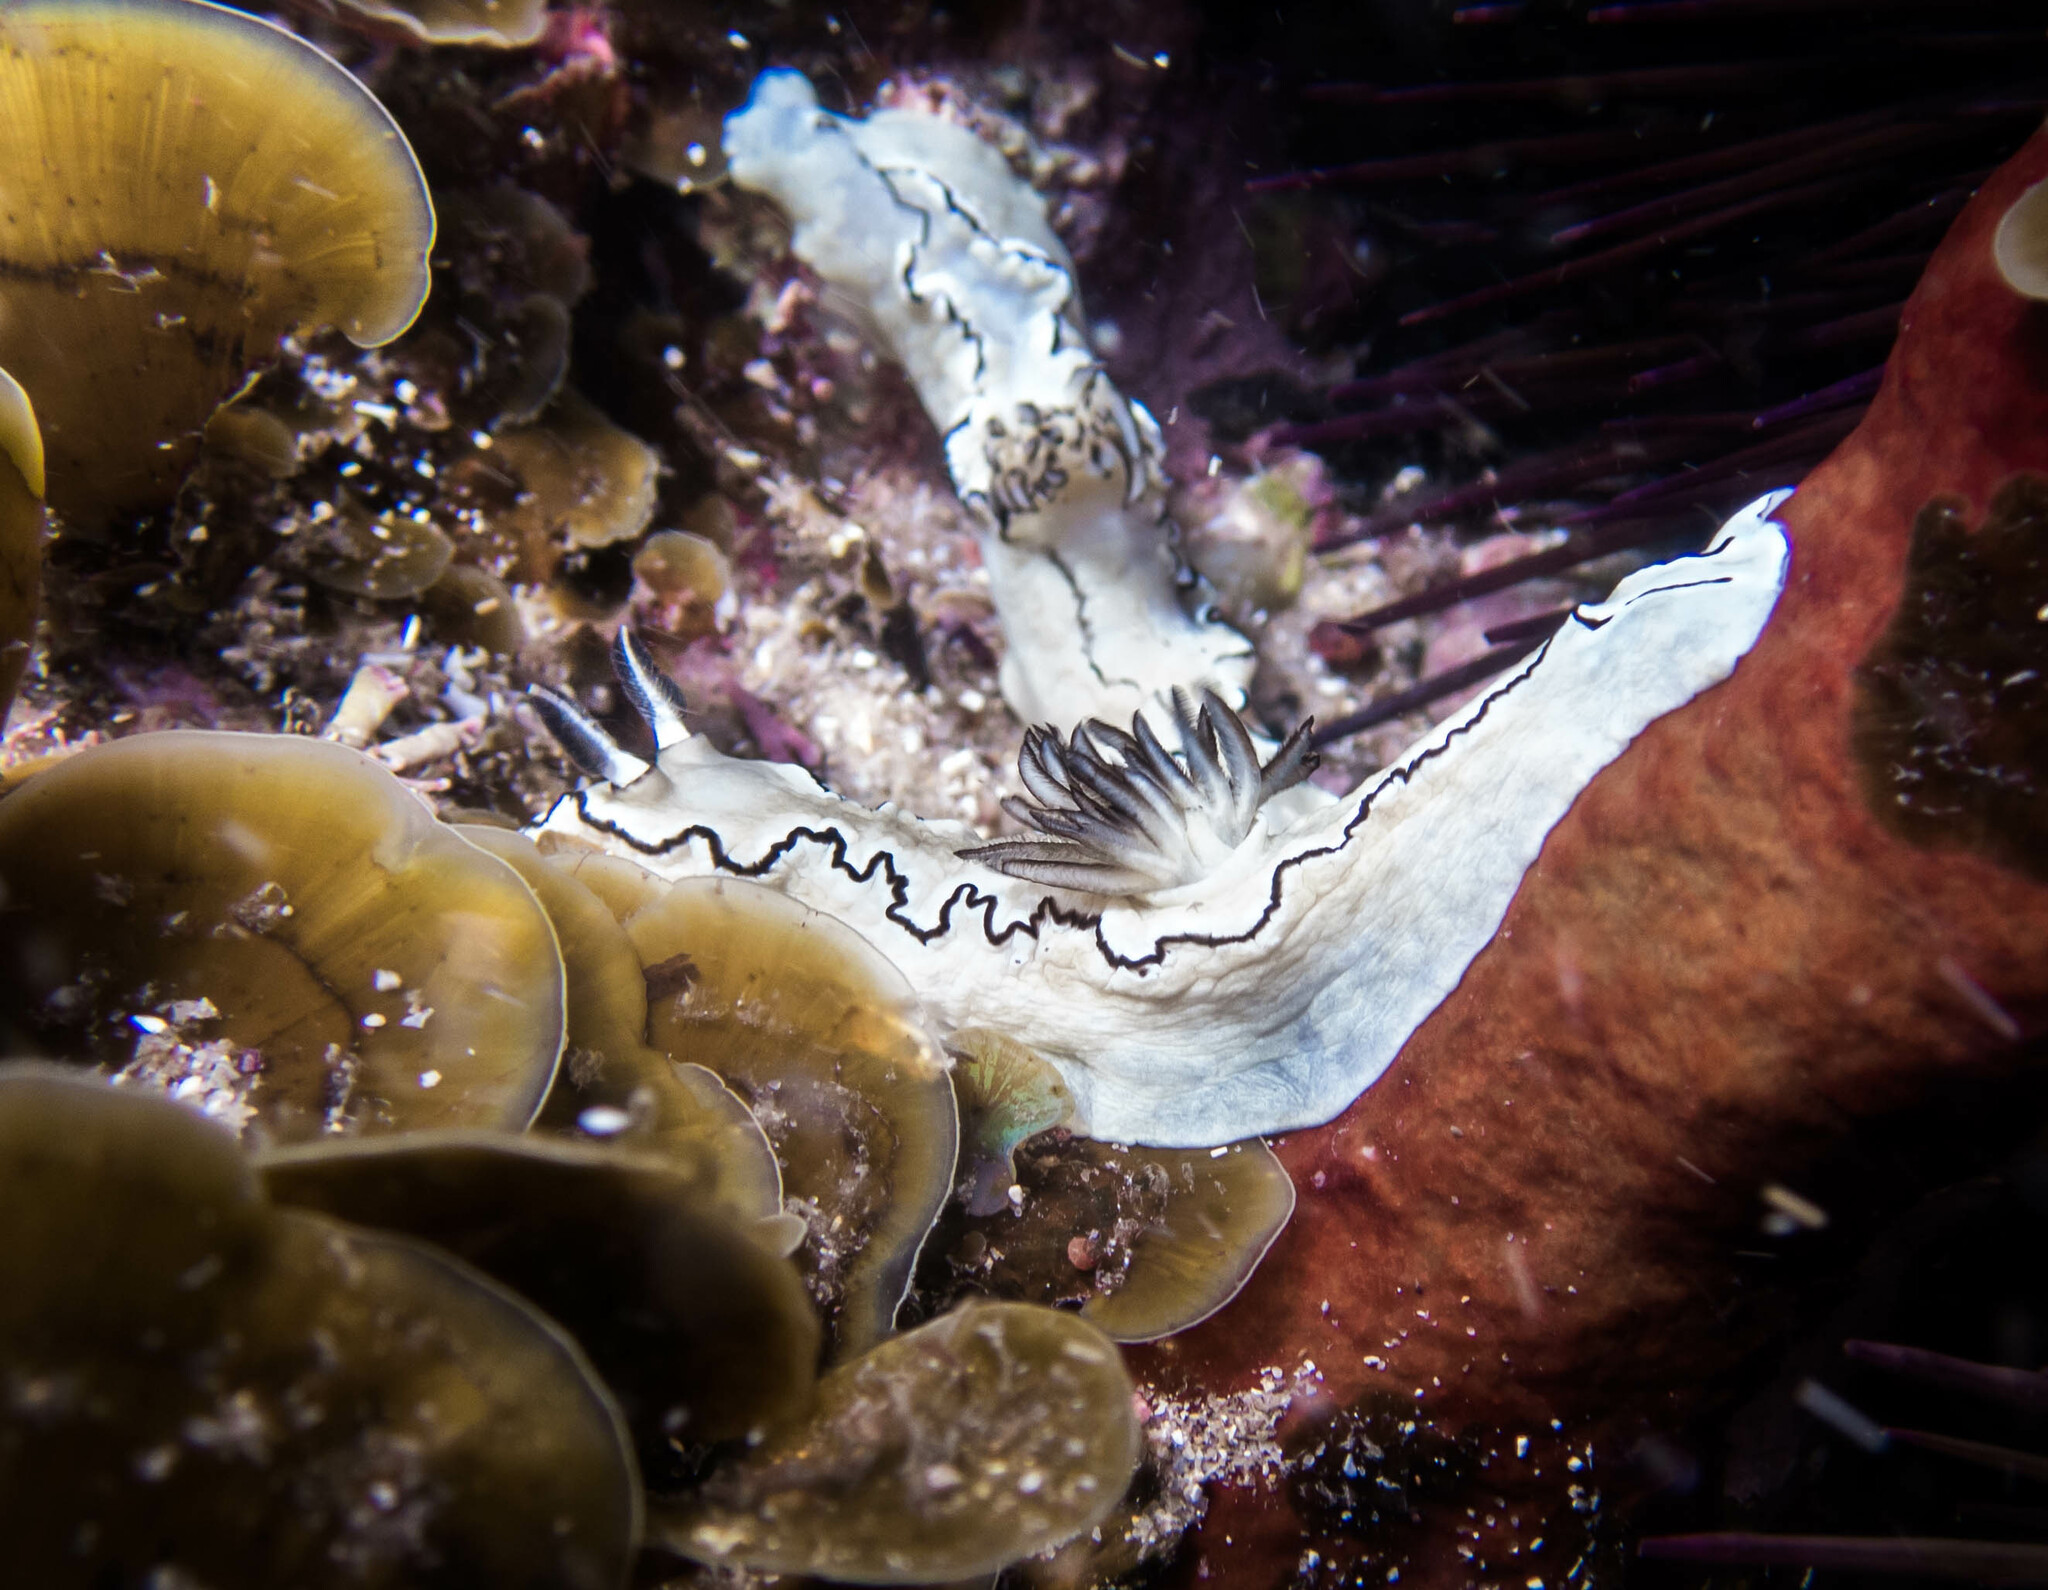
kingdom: Animalia
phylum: Mollusca
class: Gastropoda
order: Nudibranchia
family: Chromodorididae
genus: Doriprismatica
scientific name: Doriprismatica atromarginata
